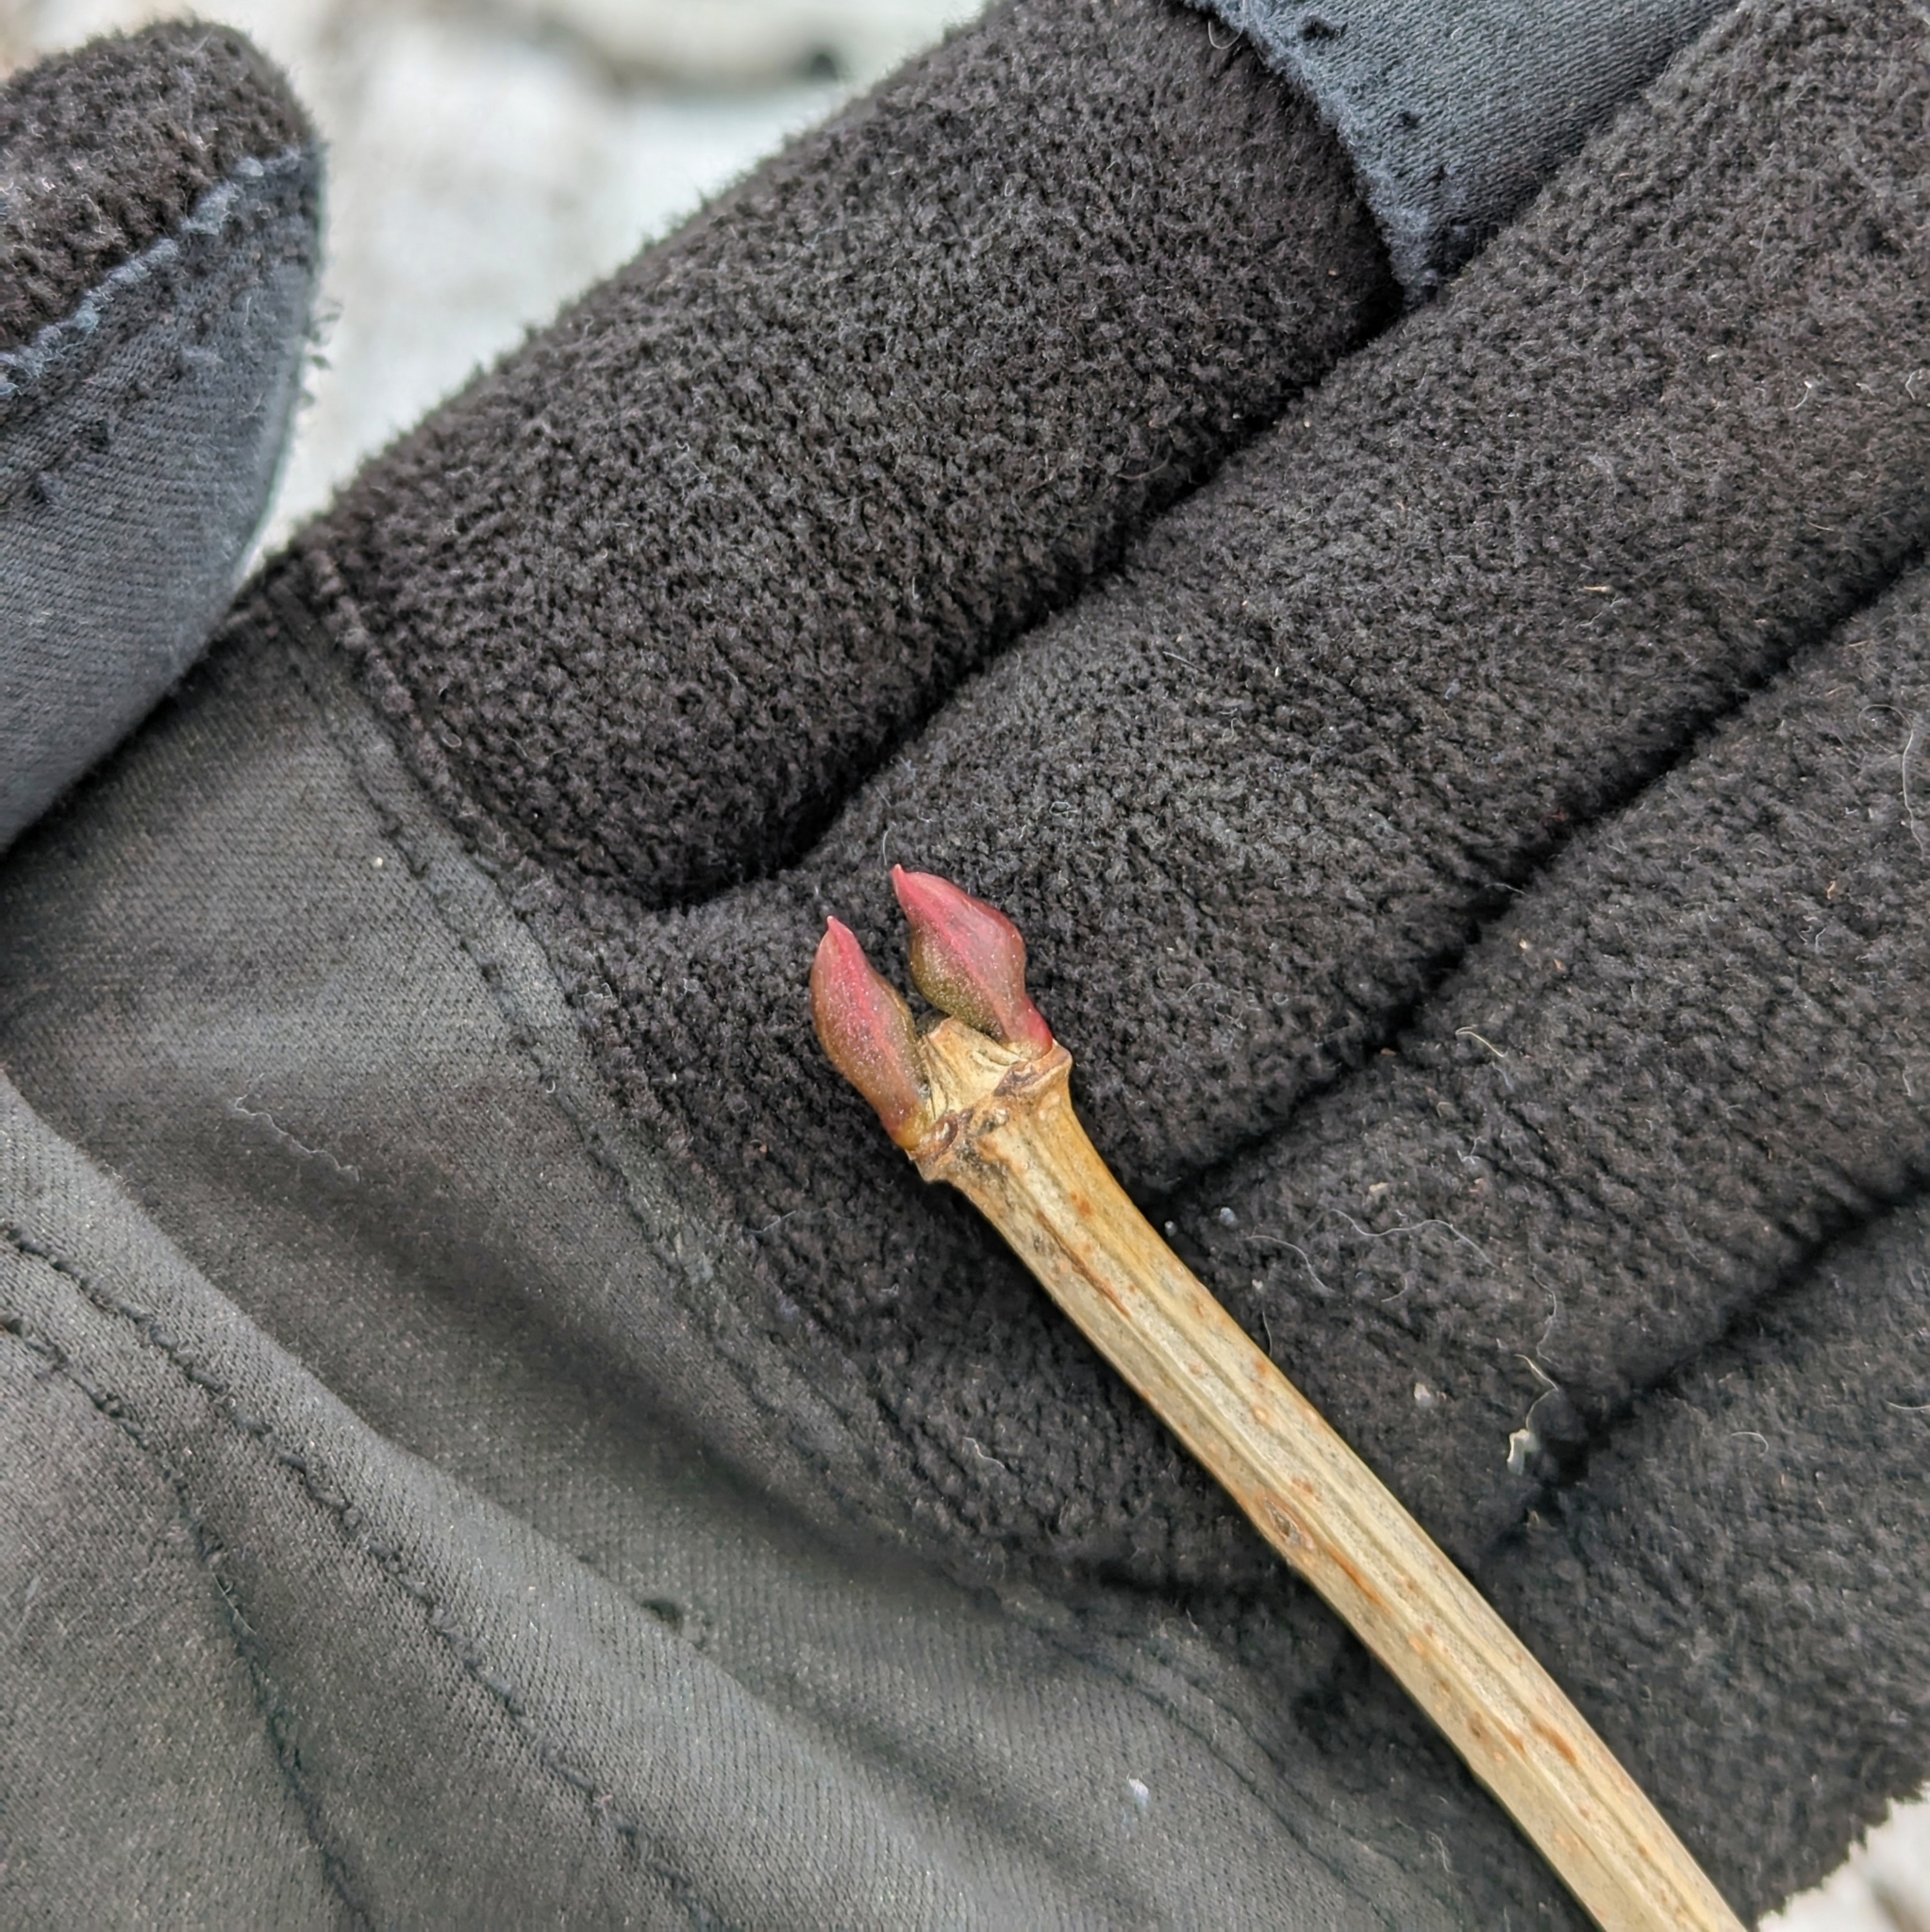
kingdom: Plantae
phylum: Tracheophyta
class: Magnoliopsida
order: Dipsacales
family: Viburnaceae
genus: Viburnum
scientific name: Viburnum opulus
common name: Guelder-rose
